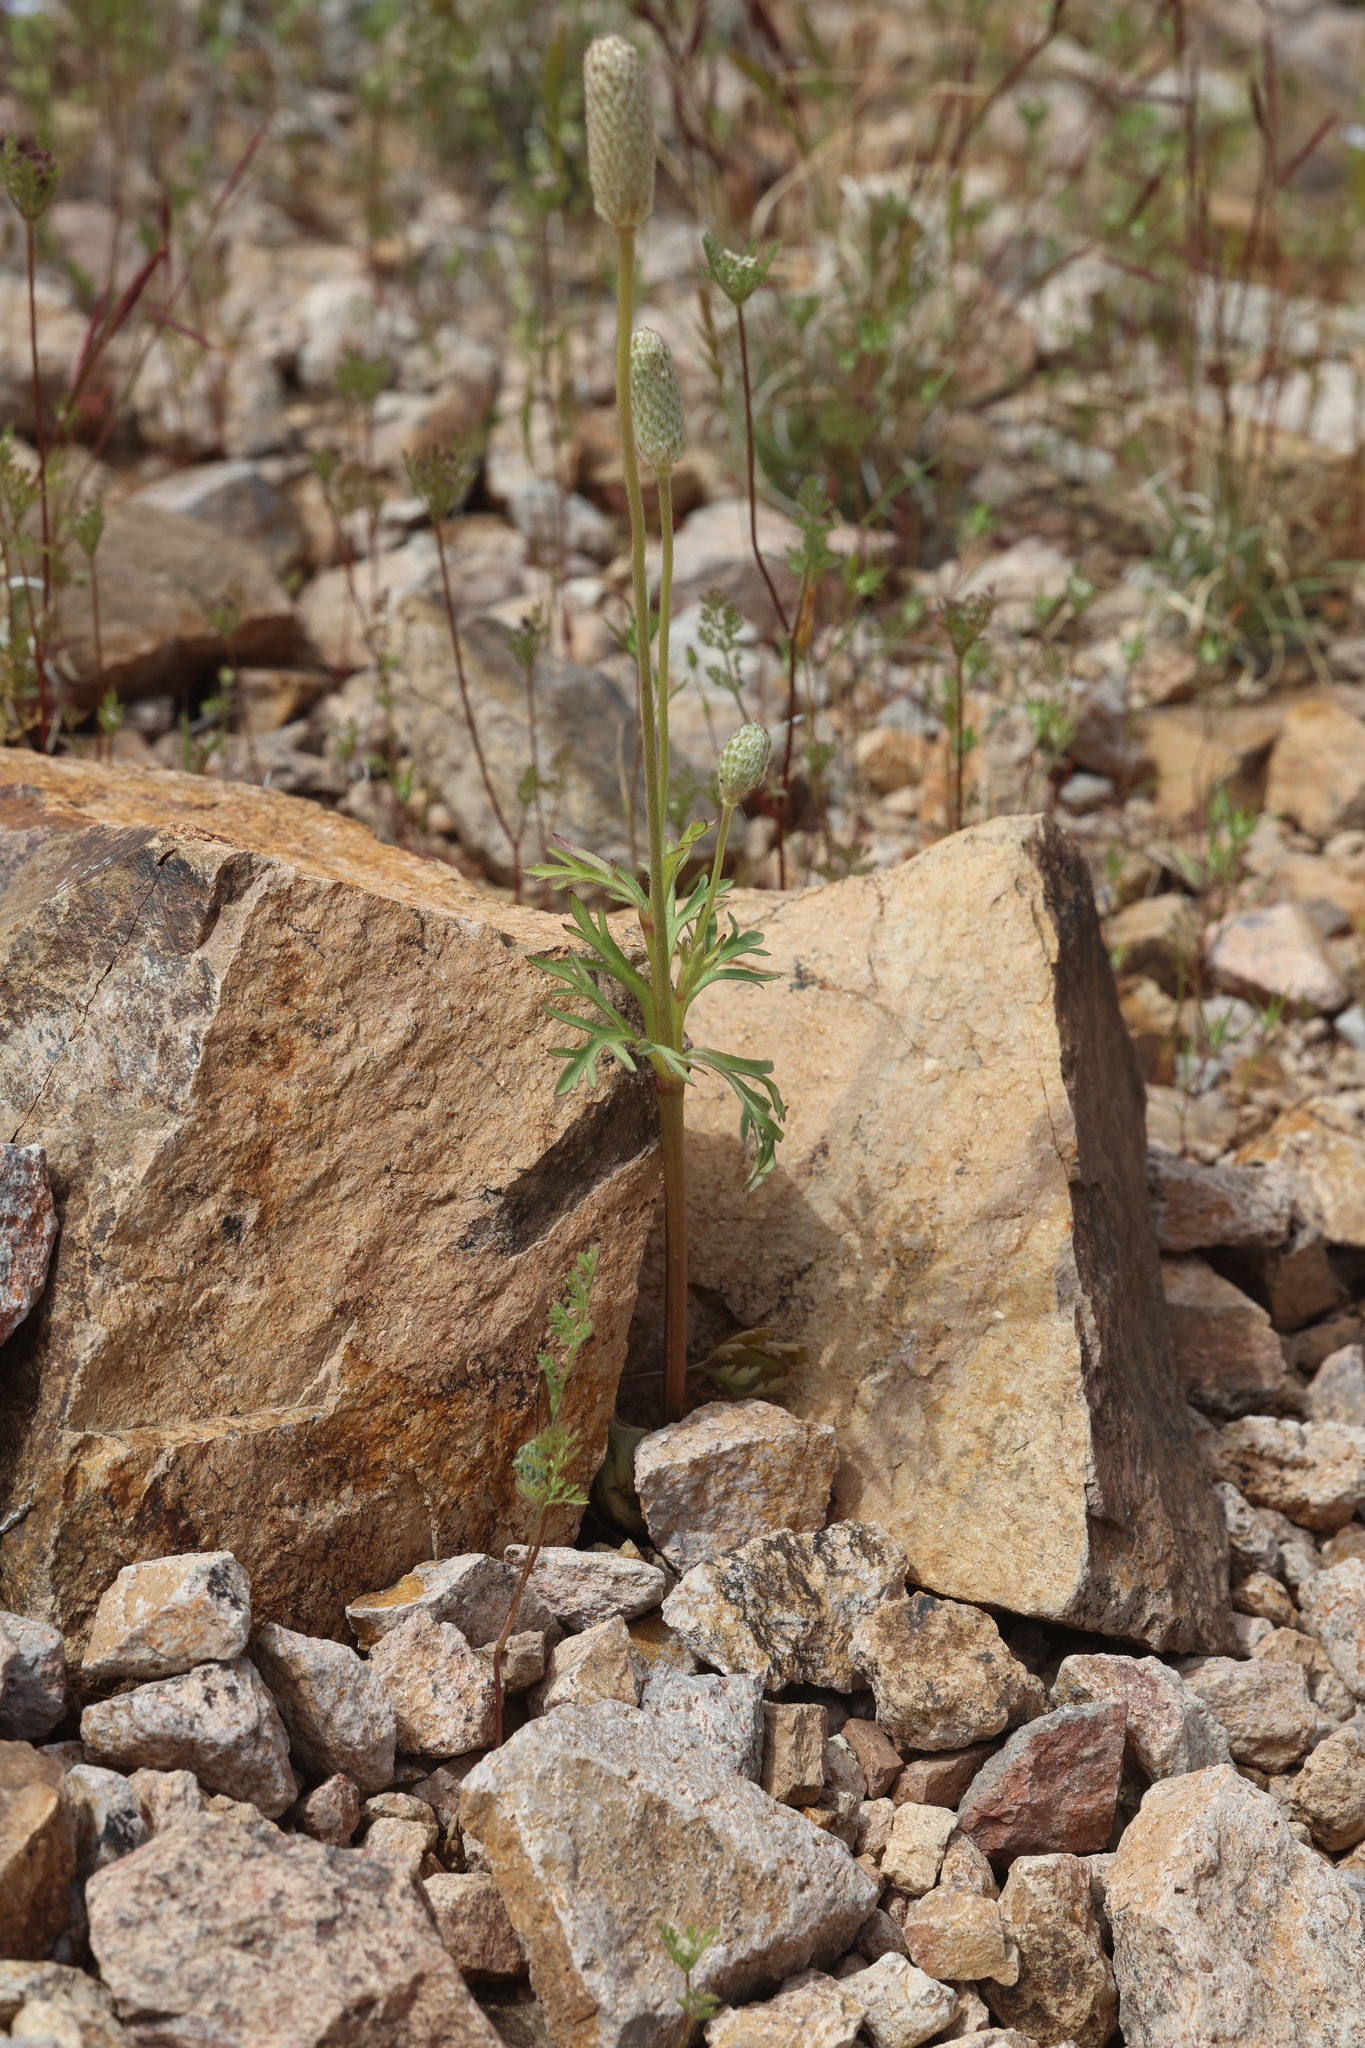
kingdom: Plantae
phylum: Tracheophyta
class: Magnoliopsida
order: Ranunculales
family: Ranunculaceae
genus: Anemone
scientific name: Anemone tuberosa
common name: Desert anemone
